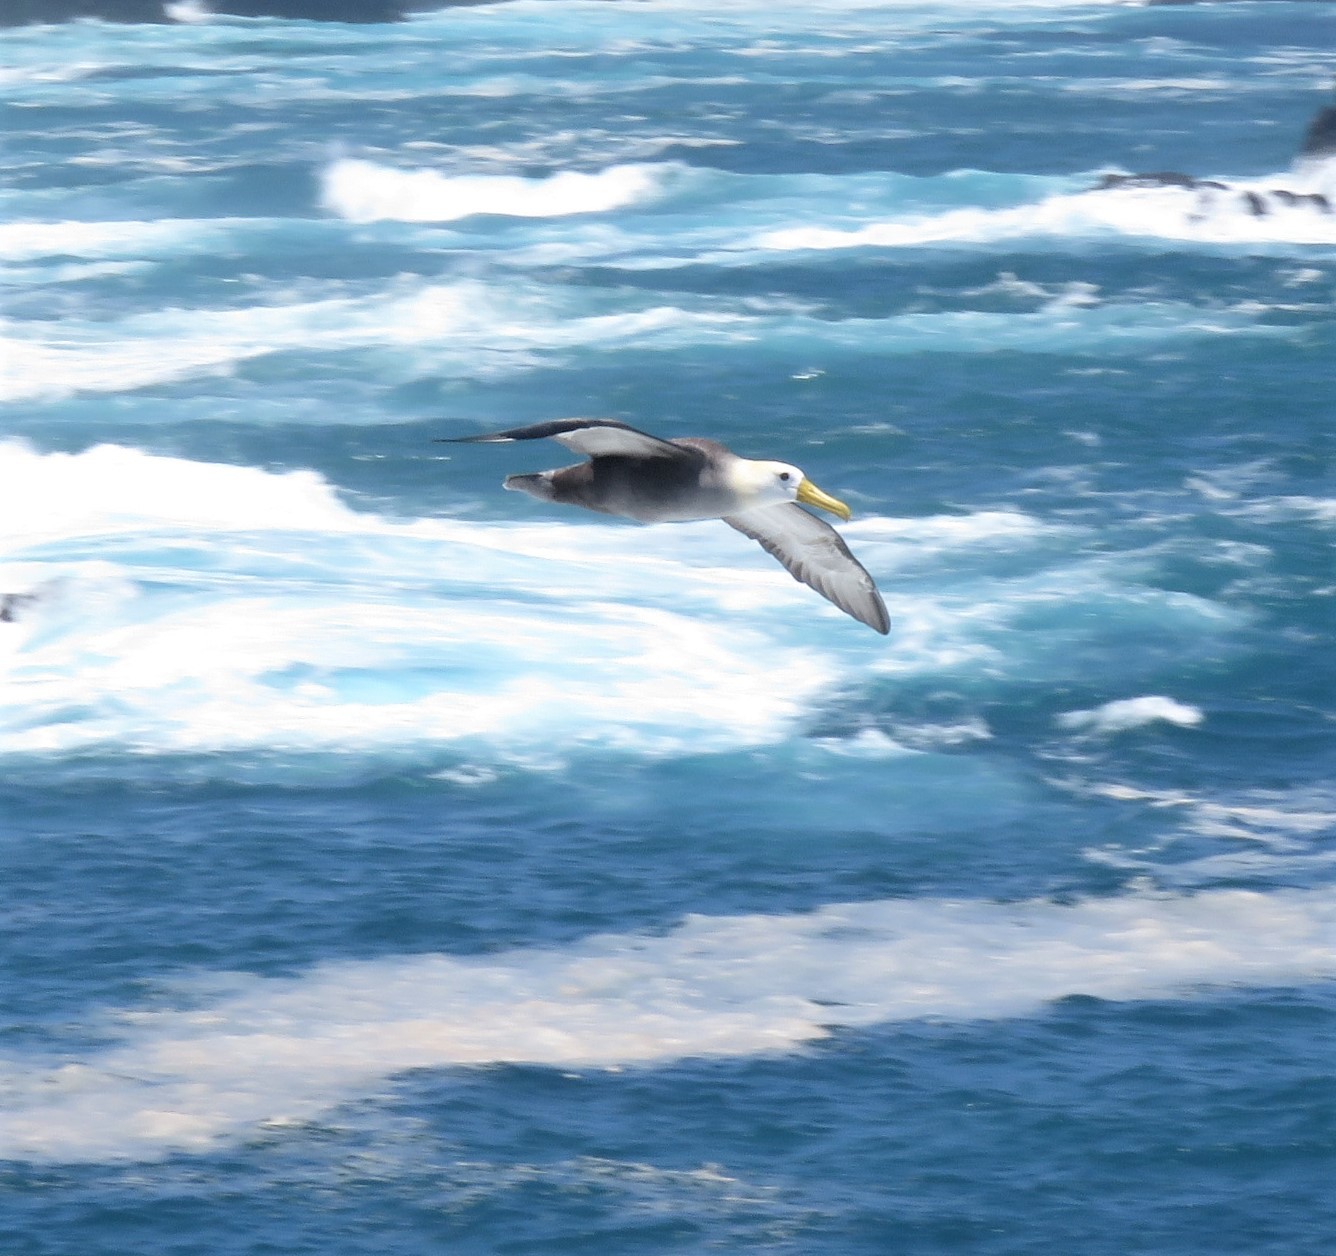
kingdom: Animalia
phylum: Chordata
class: Aves
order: Procellariiformes
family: Diomedeidae
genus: Phoebastria
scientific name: Phoebastria irrorata
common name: Waved albatross
